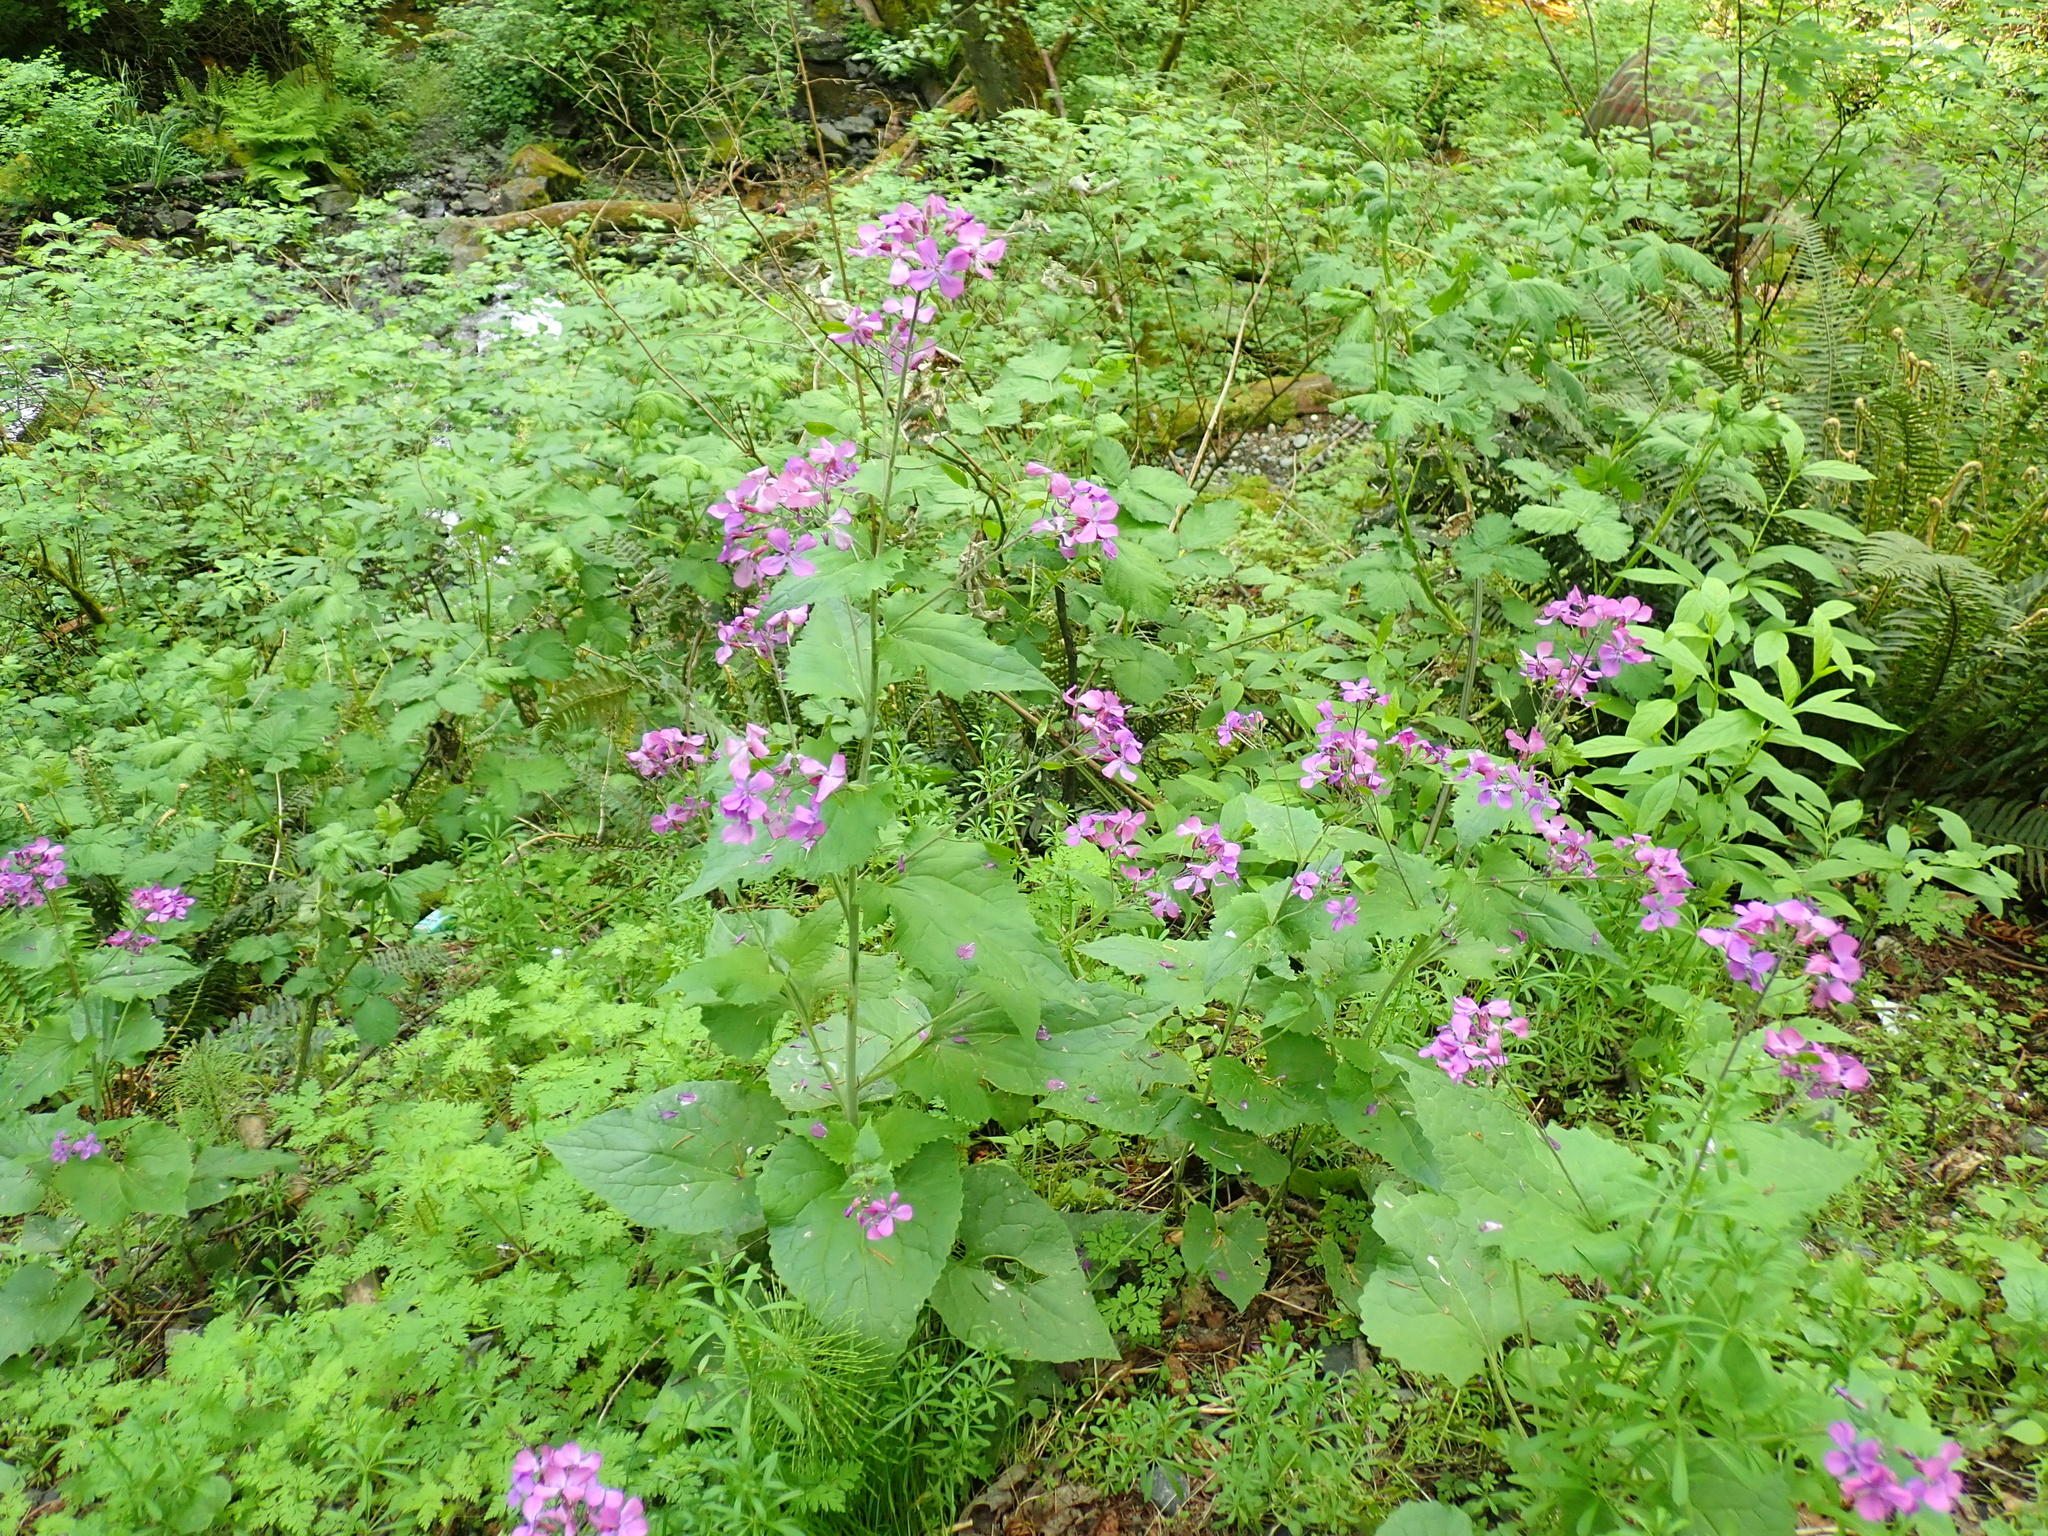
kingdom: Plantae
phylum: Tracheophyta
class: Magnoliopsida
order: Brassicales
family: Brassicaceae
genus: Lunaria
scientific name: Lunaria annua
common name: Honesty
